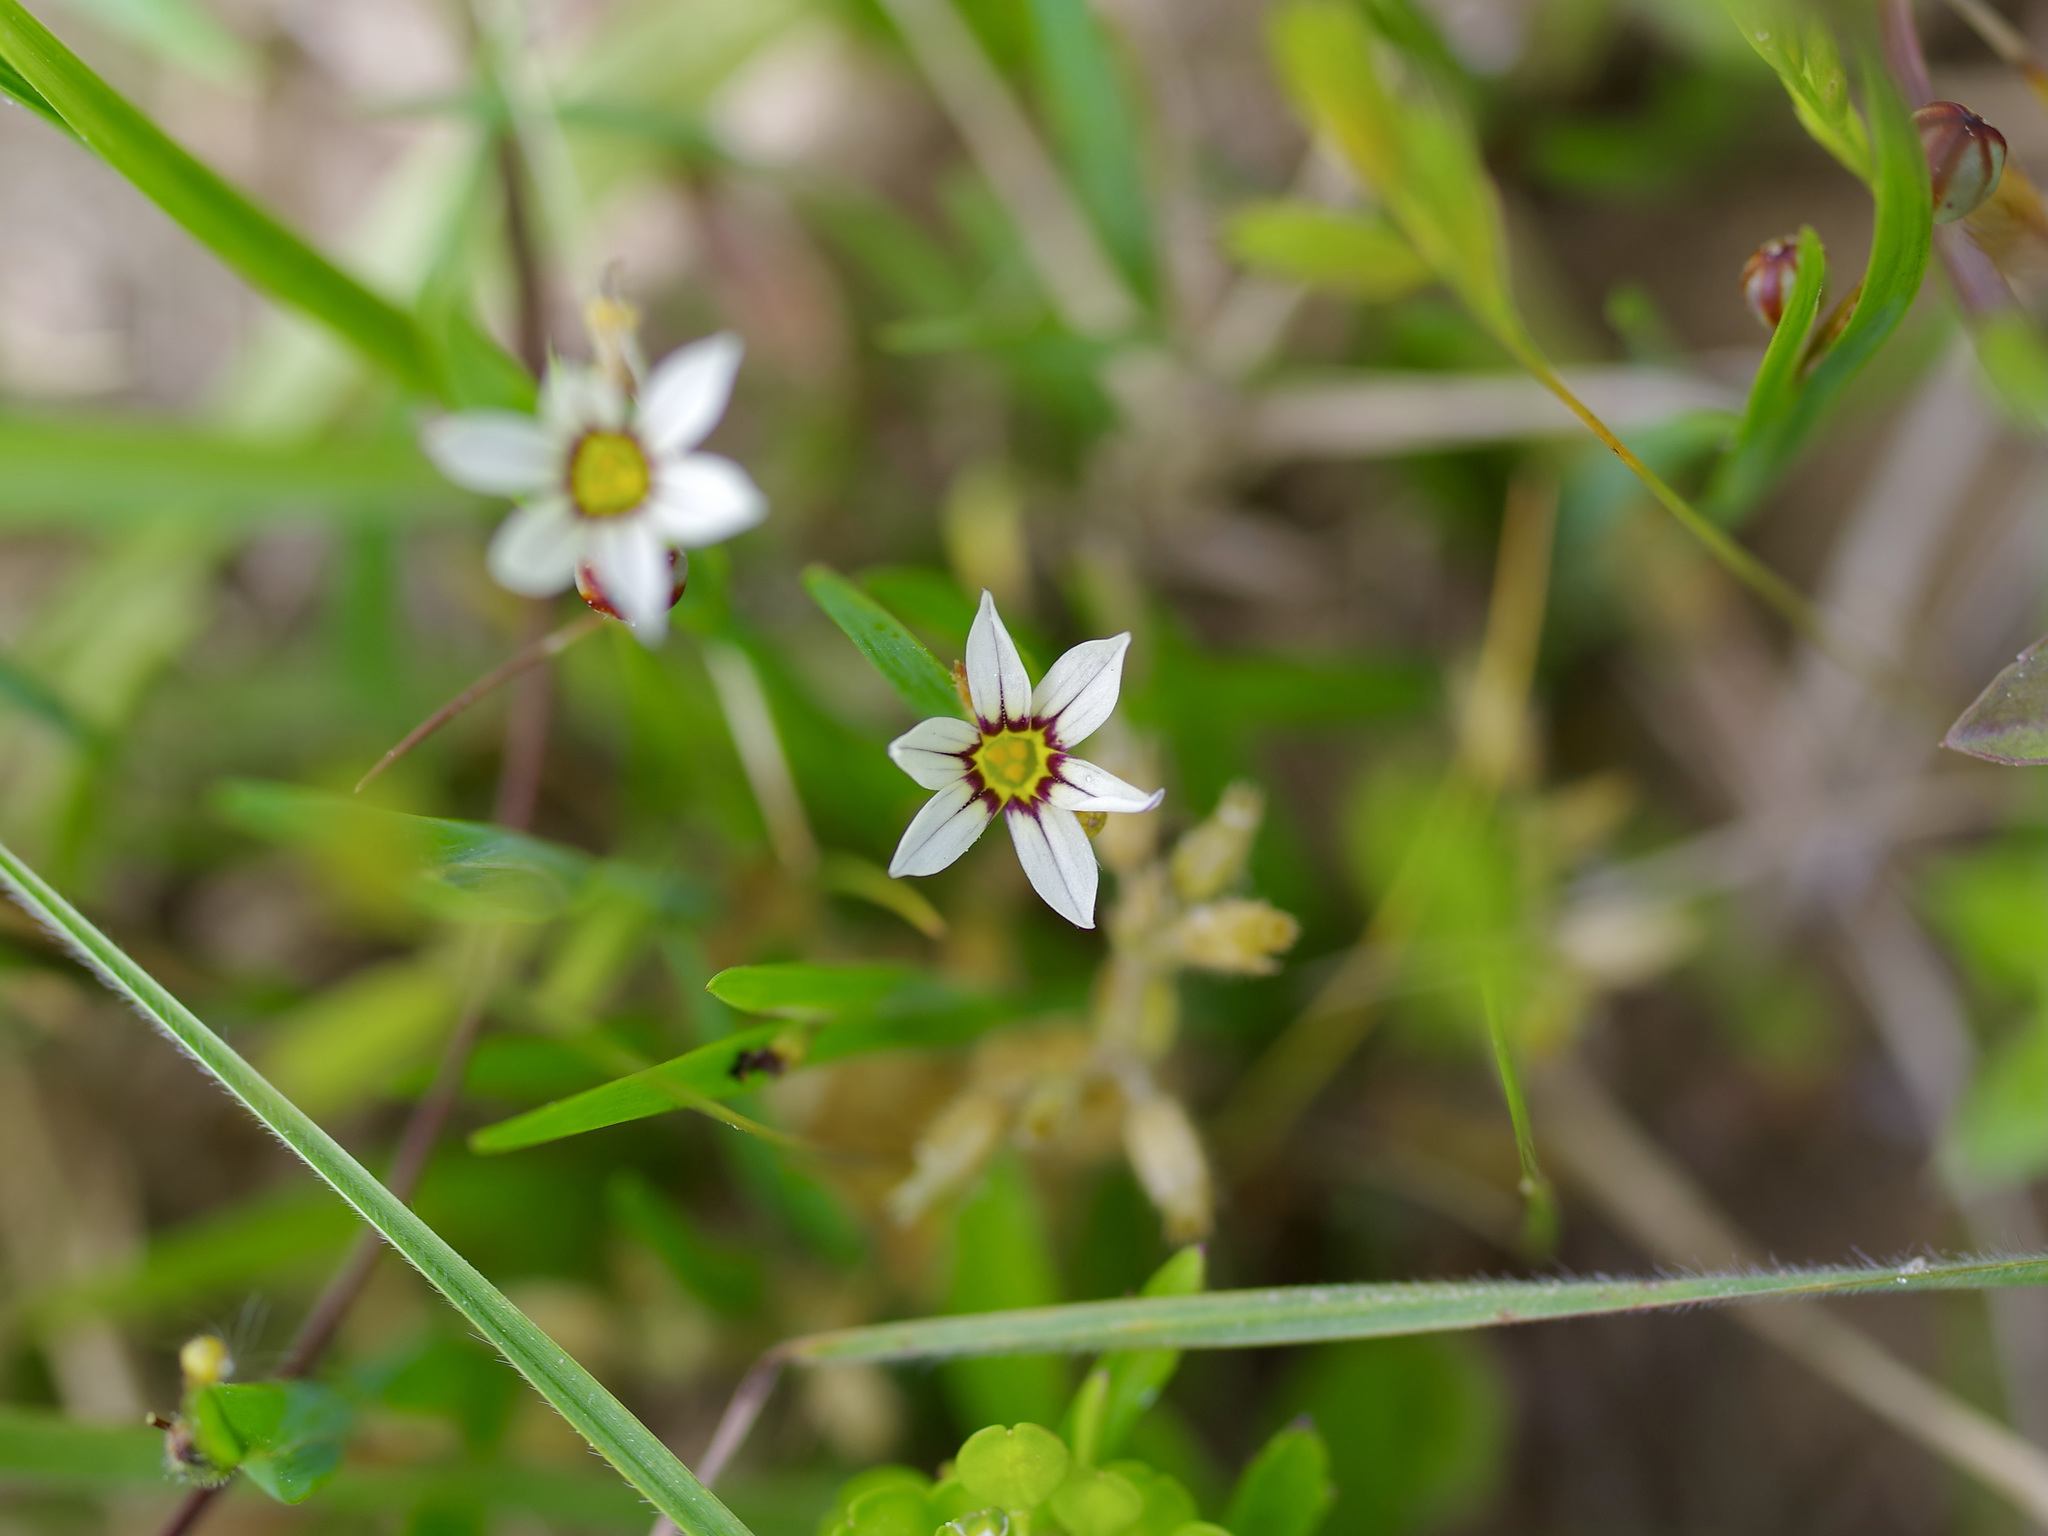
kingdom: Plantae
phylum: Tracheophyta
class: Liliopsida
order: Asparagales
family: Iridaceae
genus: Sisyrinchium
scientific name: Sisyrinchium micranthum
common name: Bermuda pigroot
